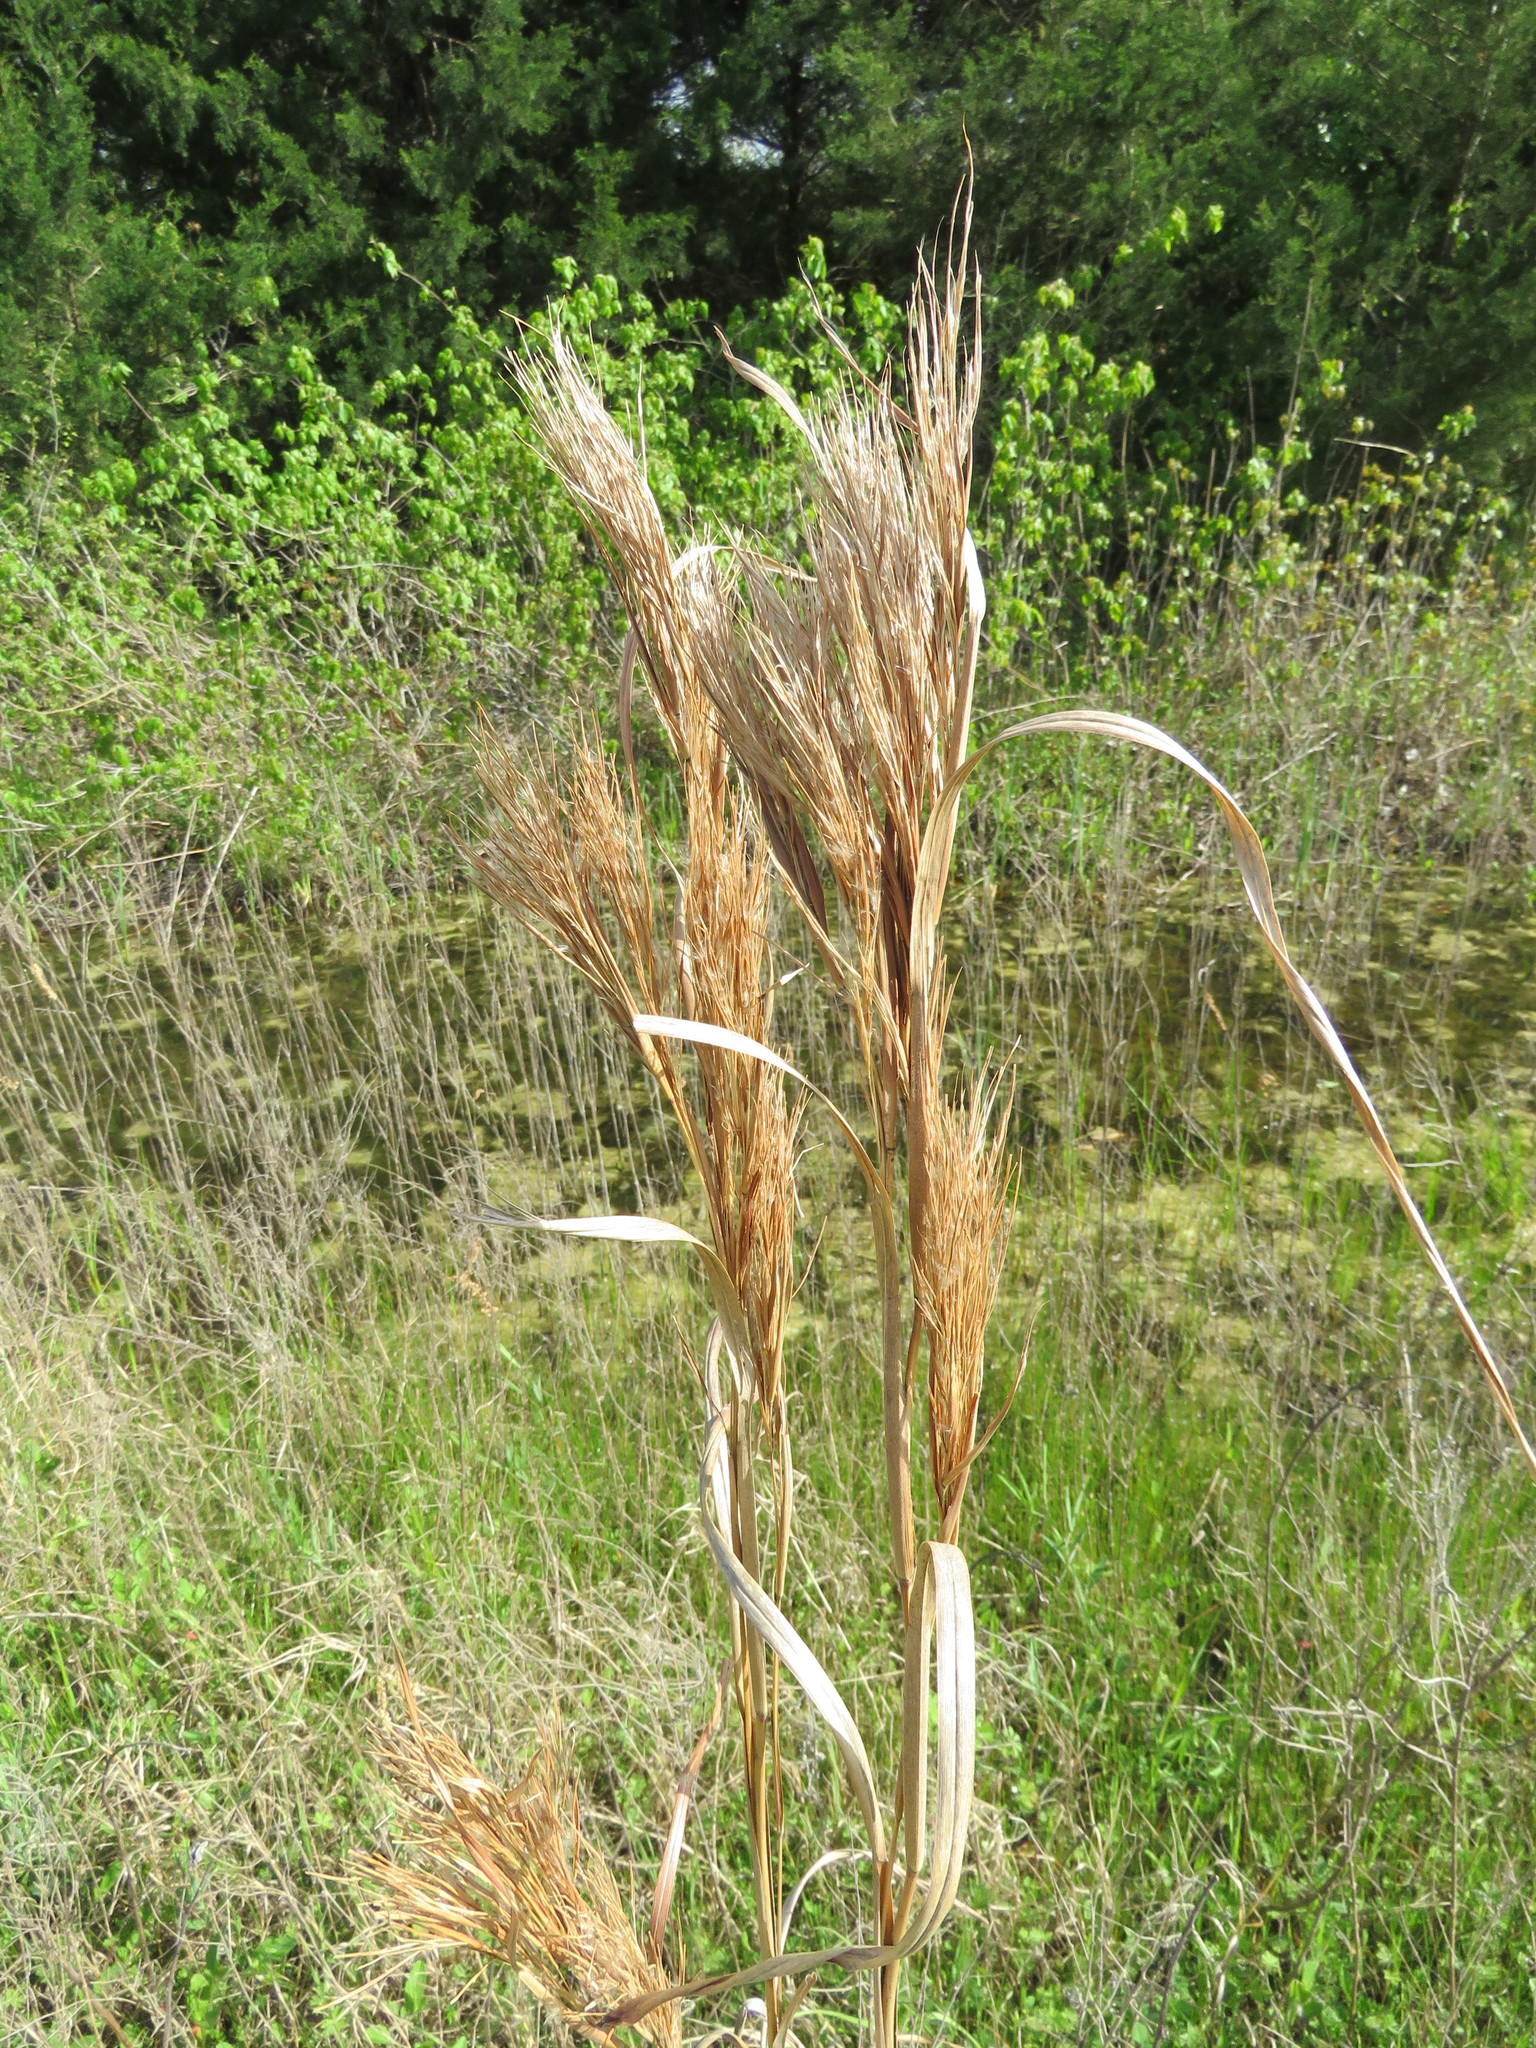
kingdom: Plantae
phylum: Tracheophyta
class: Liliopsida
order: Poales
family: Poaceae
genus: Andropogon
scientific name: Andropogon tenuispatheus
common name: Bushy bluestem
